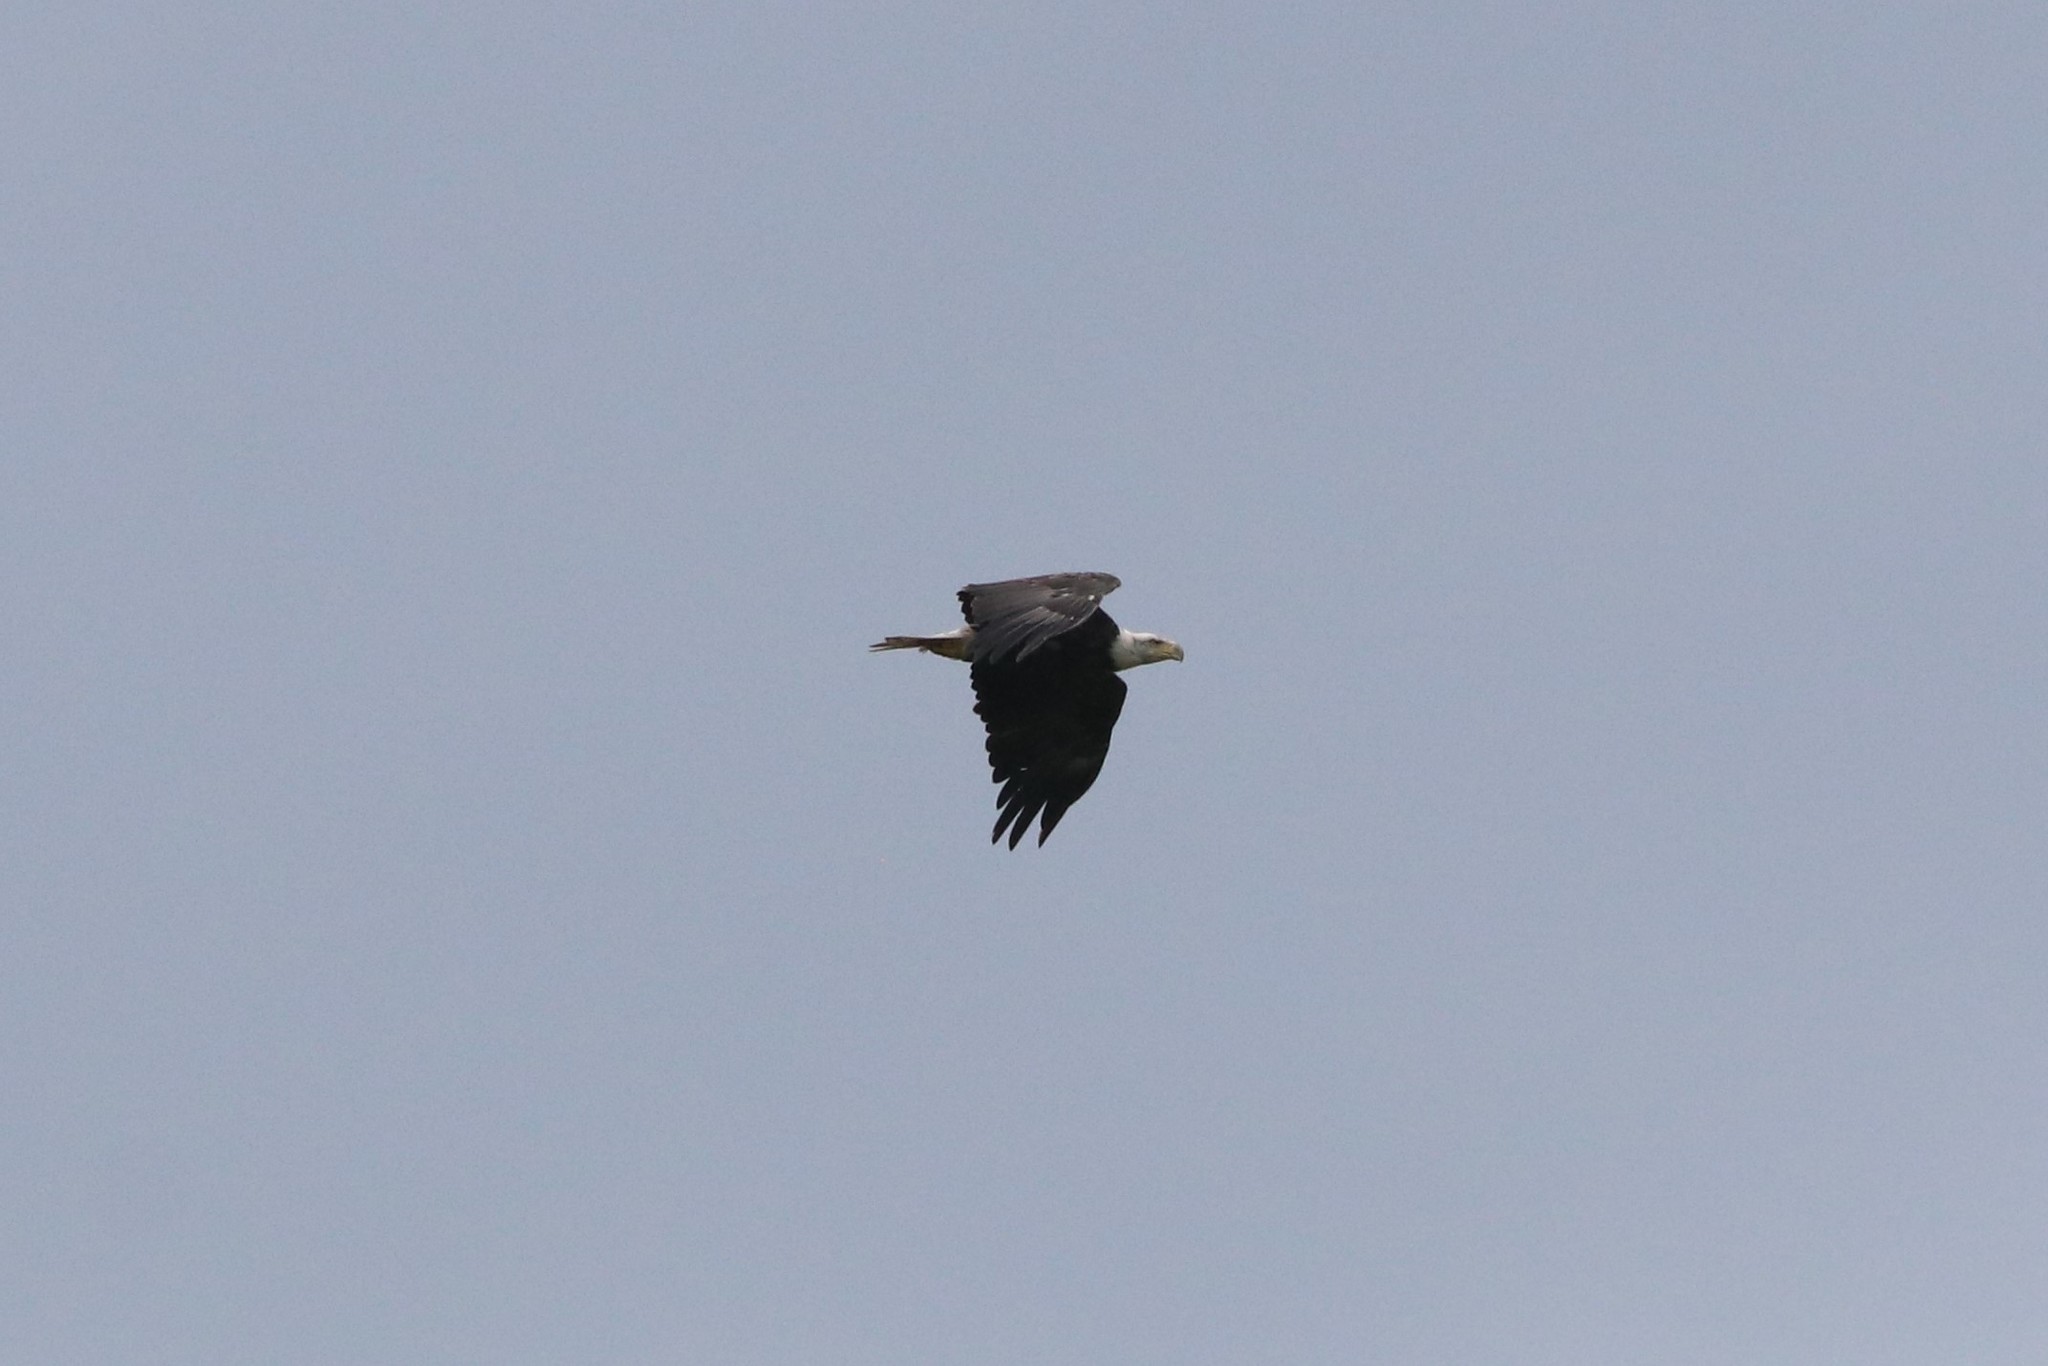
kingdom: Animalia
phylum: Chordata
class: Aves
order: Accipitriformes
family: Accipitridae
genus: Haliaeetus
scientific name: Haliaeetus leucocephalus
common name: Bald eagle
